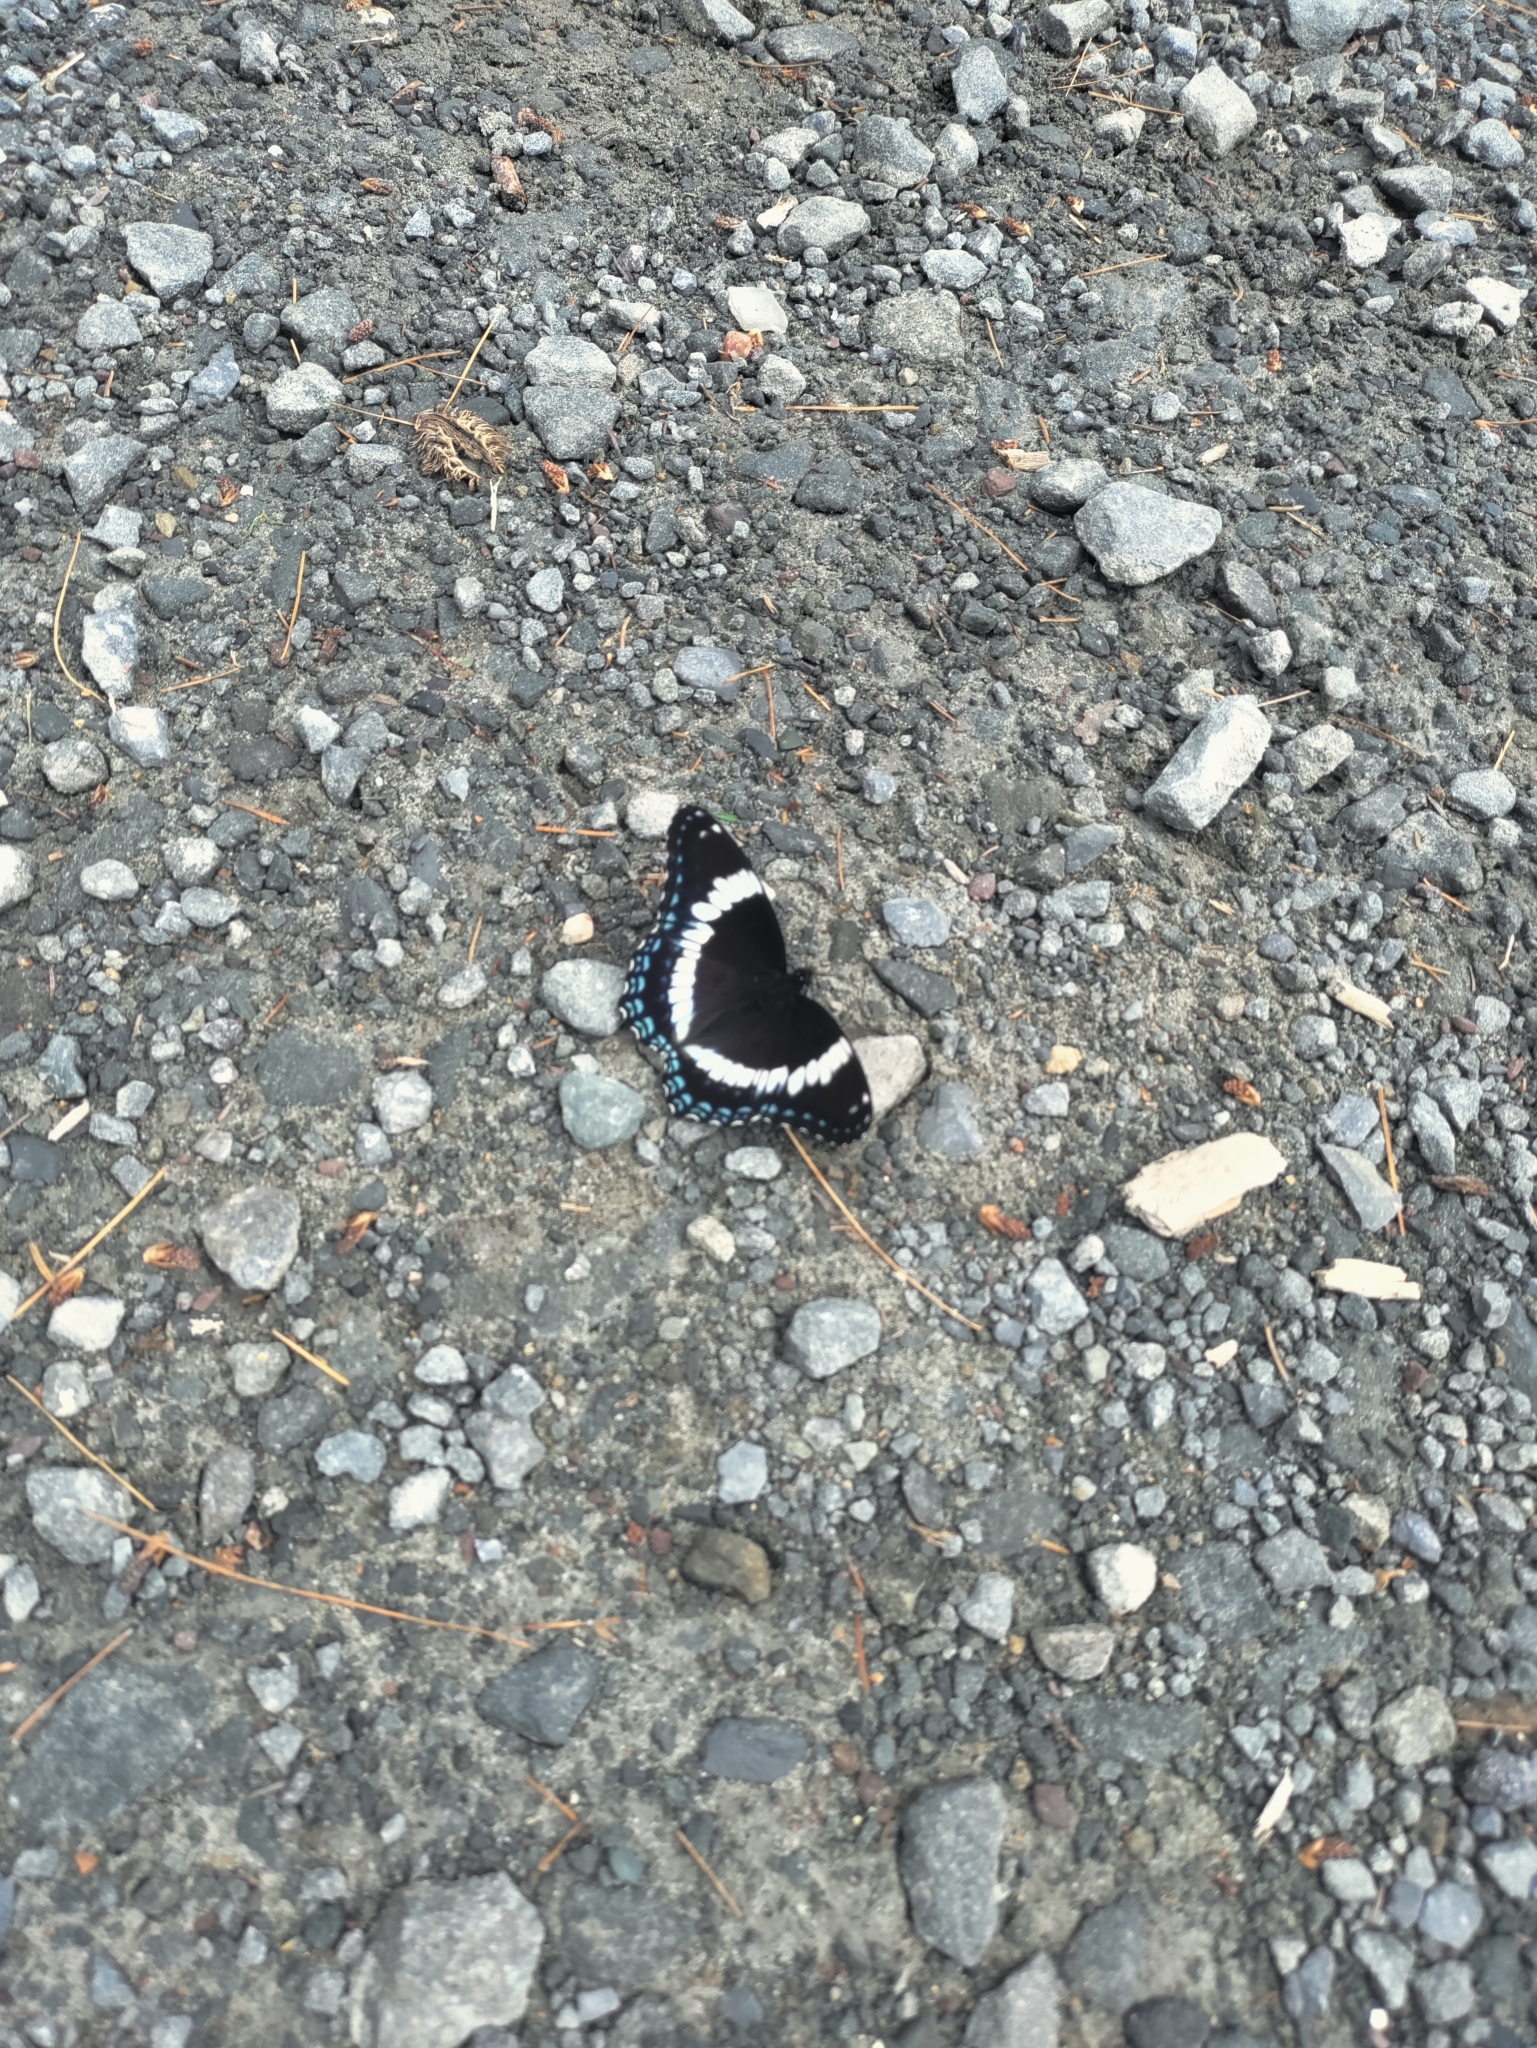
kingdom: Animalia
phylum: Arthropoda
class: Insecta
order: Lepidoptera
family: Nymphalidae
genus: Limenitis
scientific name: Limenitis arthemis
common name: Red-spotted admiral
